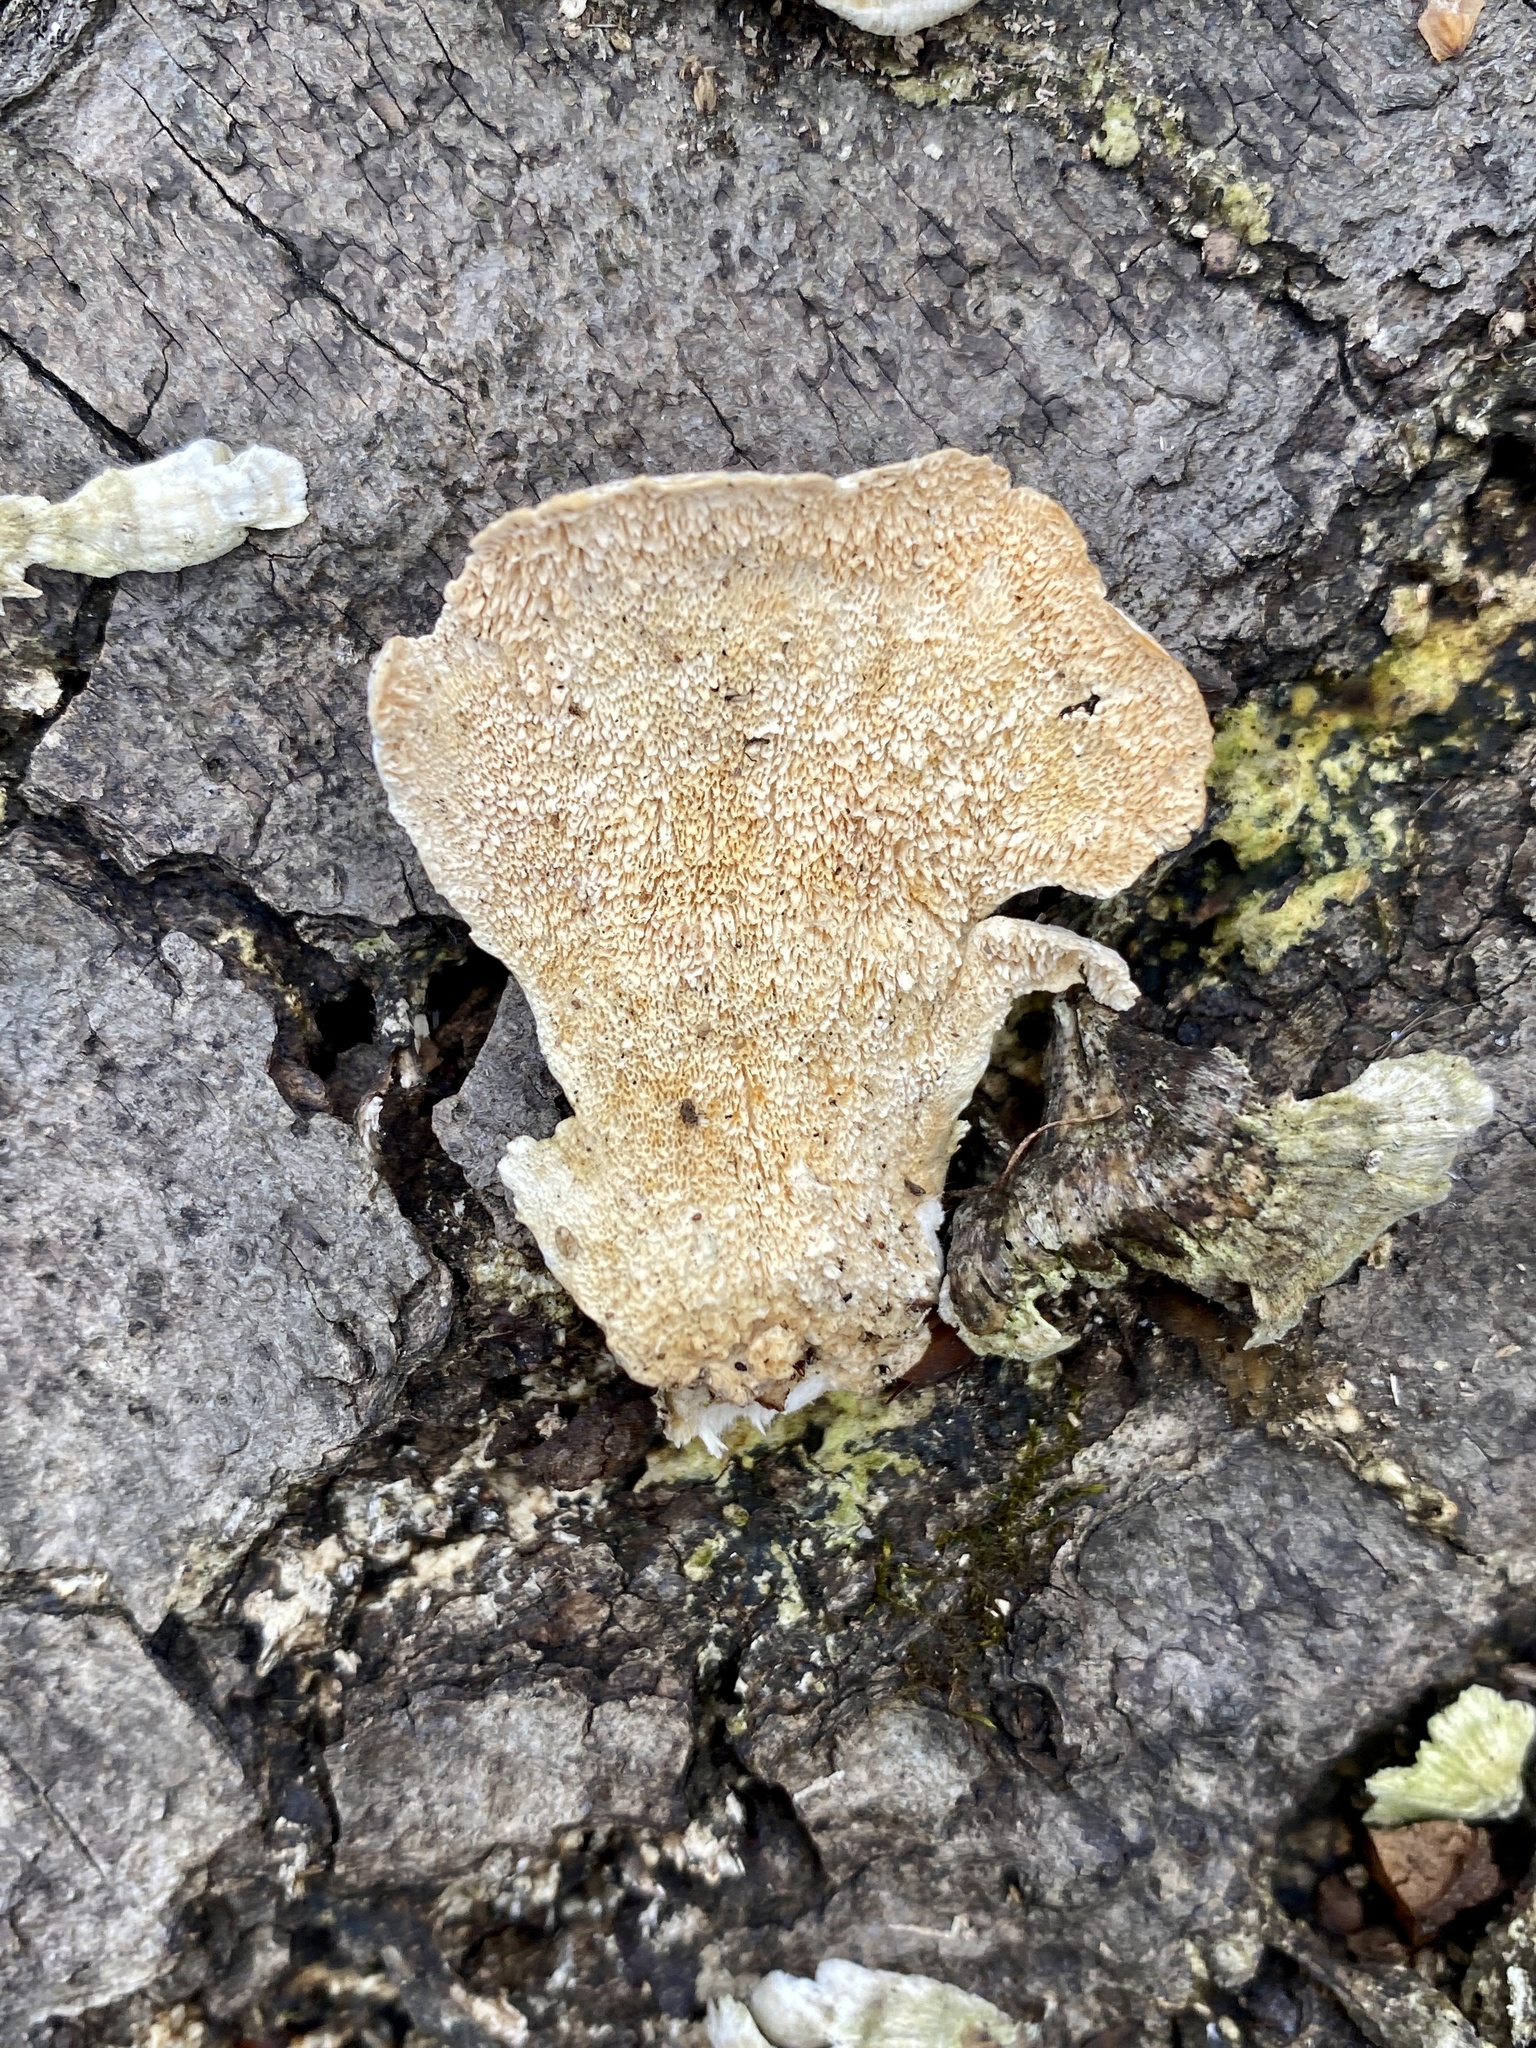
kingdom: Fungi
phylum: Basidiomycota
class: Agaricomycetes
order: Hymenochaetales
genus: Trichaptum
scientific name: Trichaptum biforme
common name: Violet-toothed polypore
